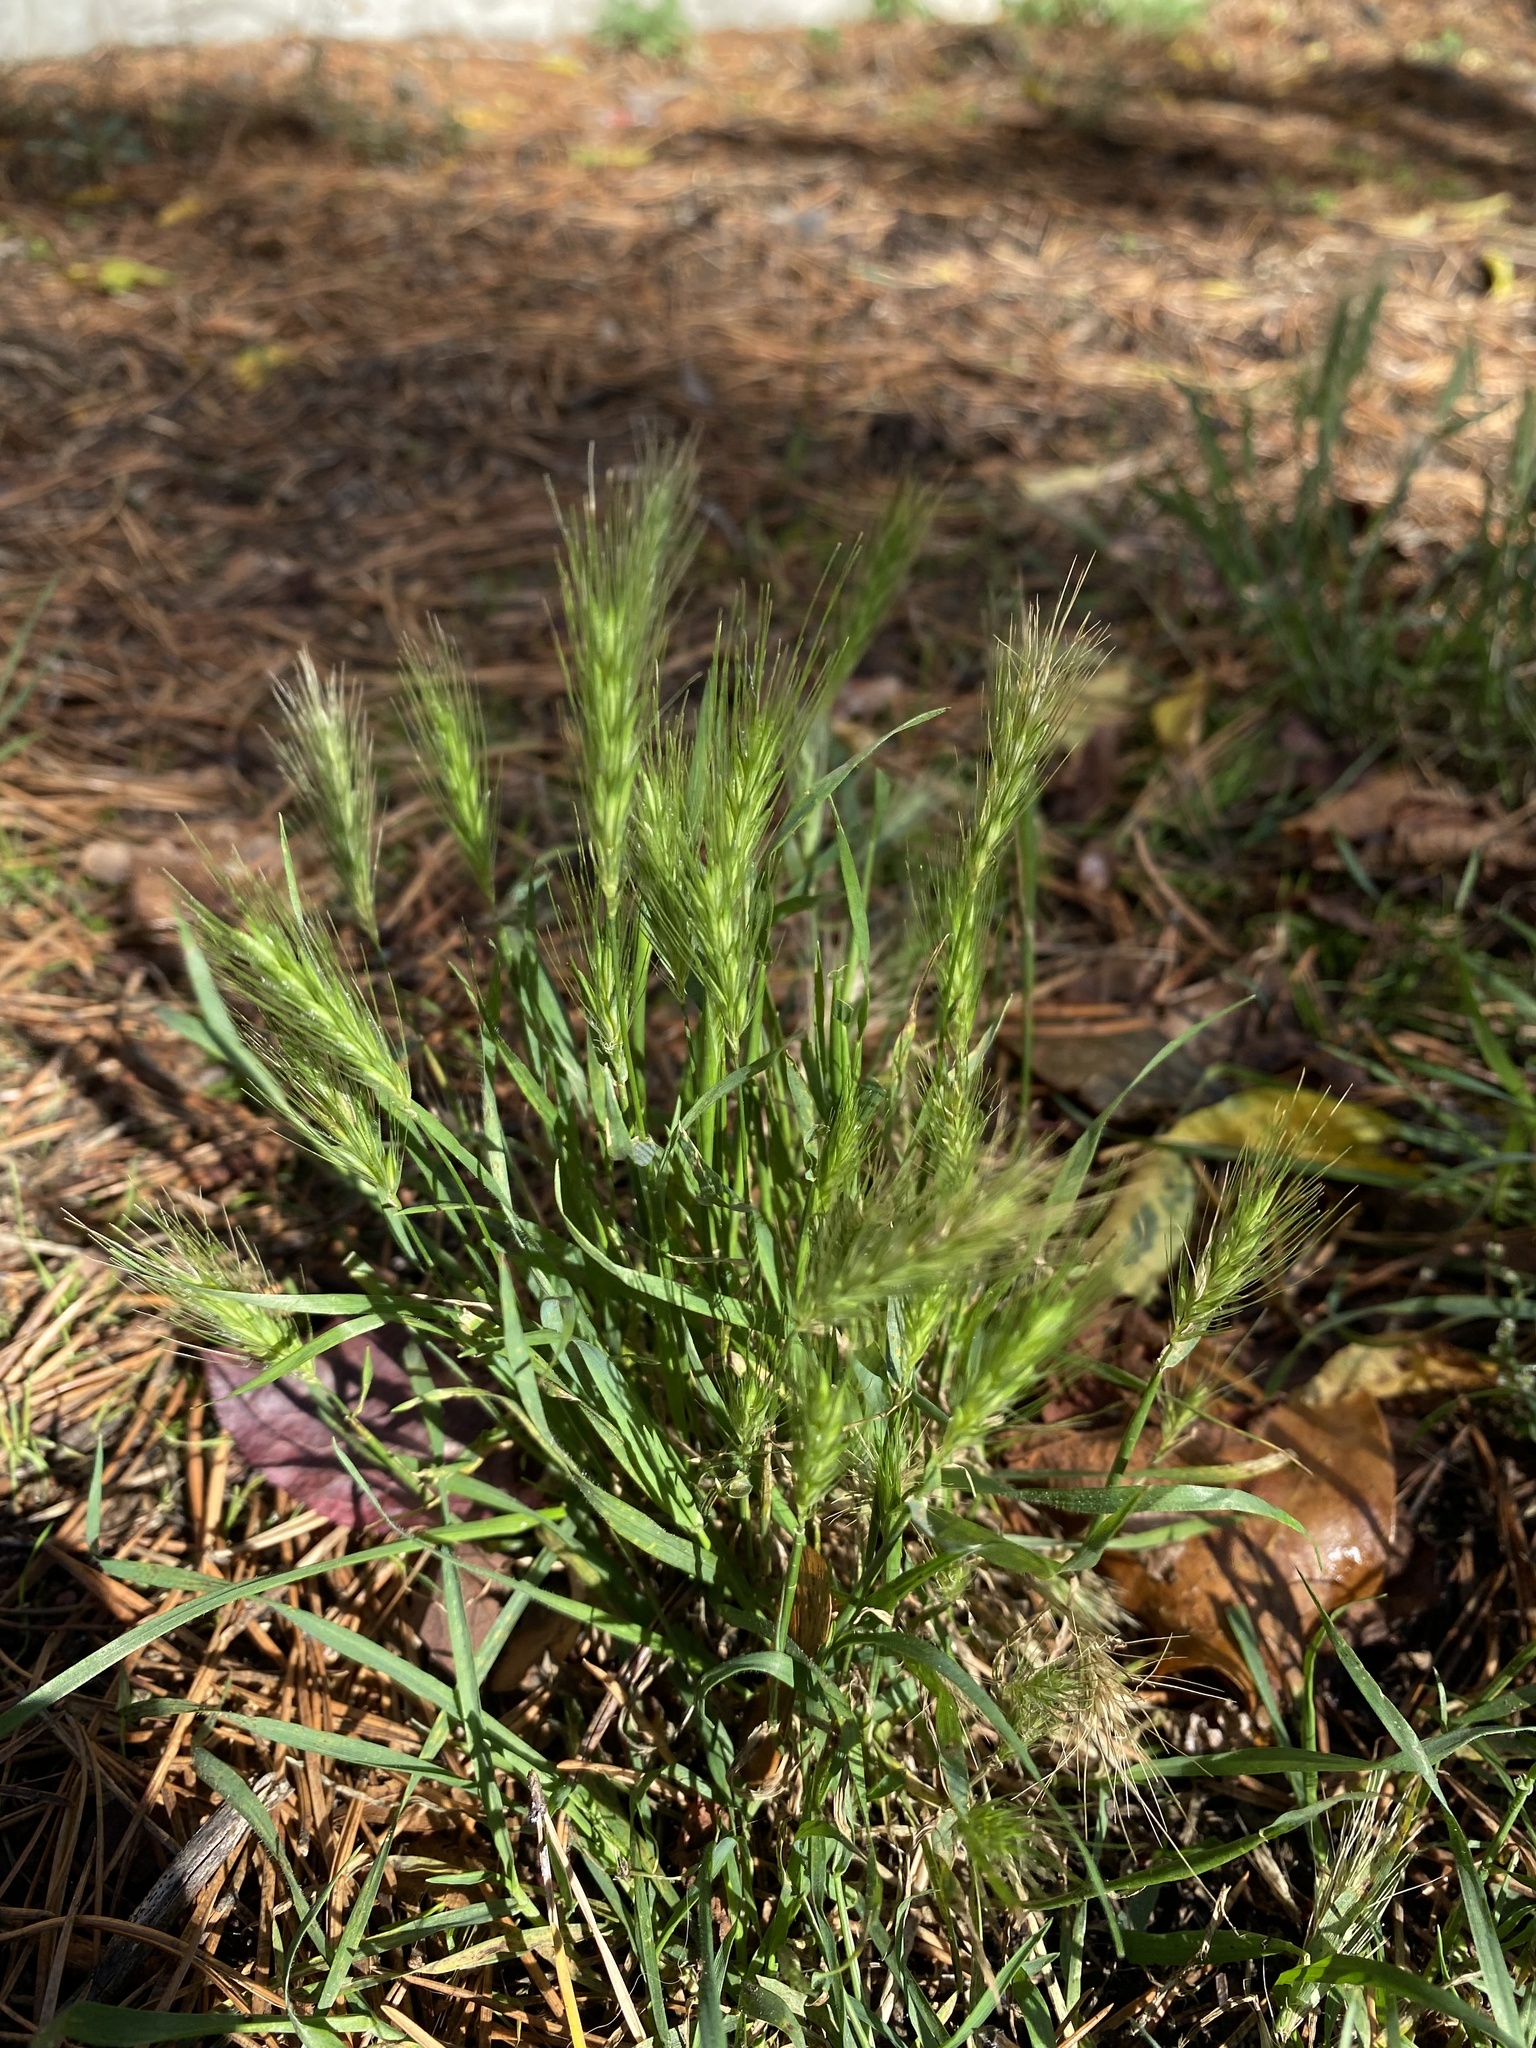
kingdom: Plantae
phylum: Tracheophyta
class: Liliopsida
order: Poales
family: Poaceae
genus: Hordeum
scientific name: Hordeum murinum
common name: Wall barley
